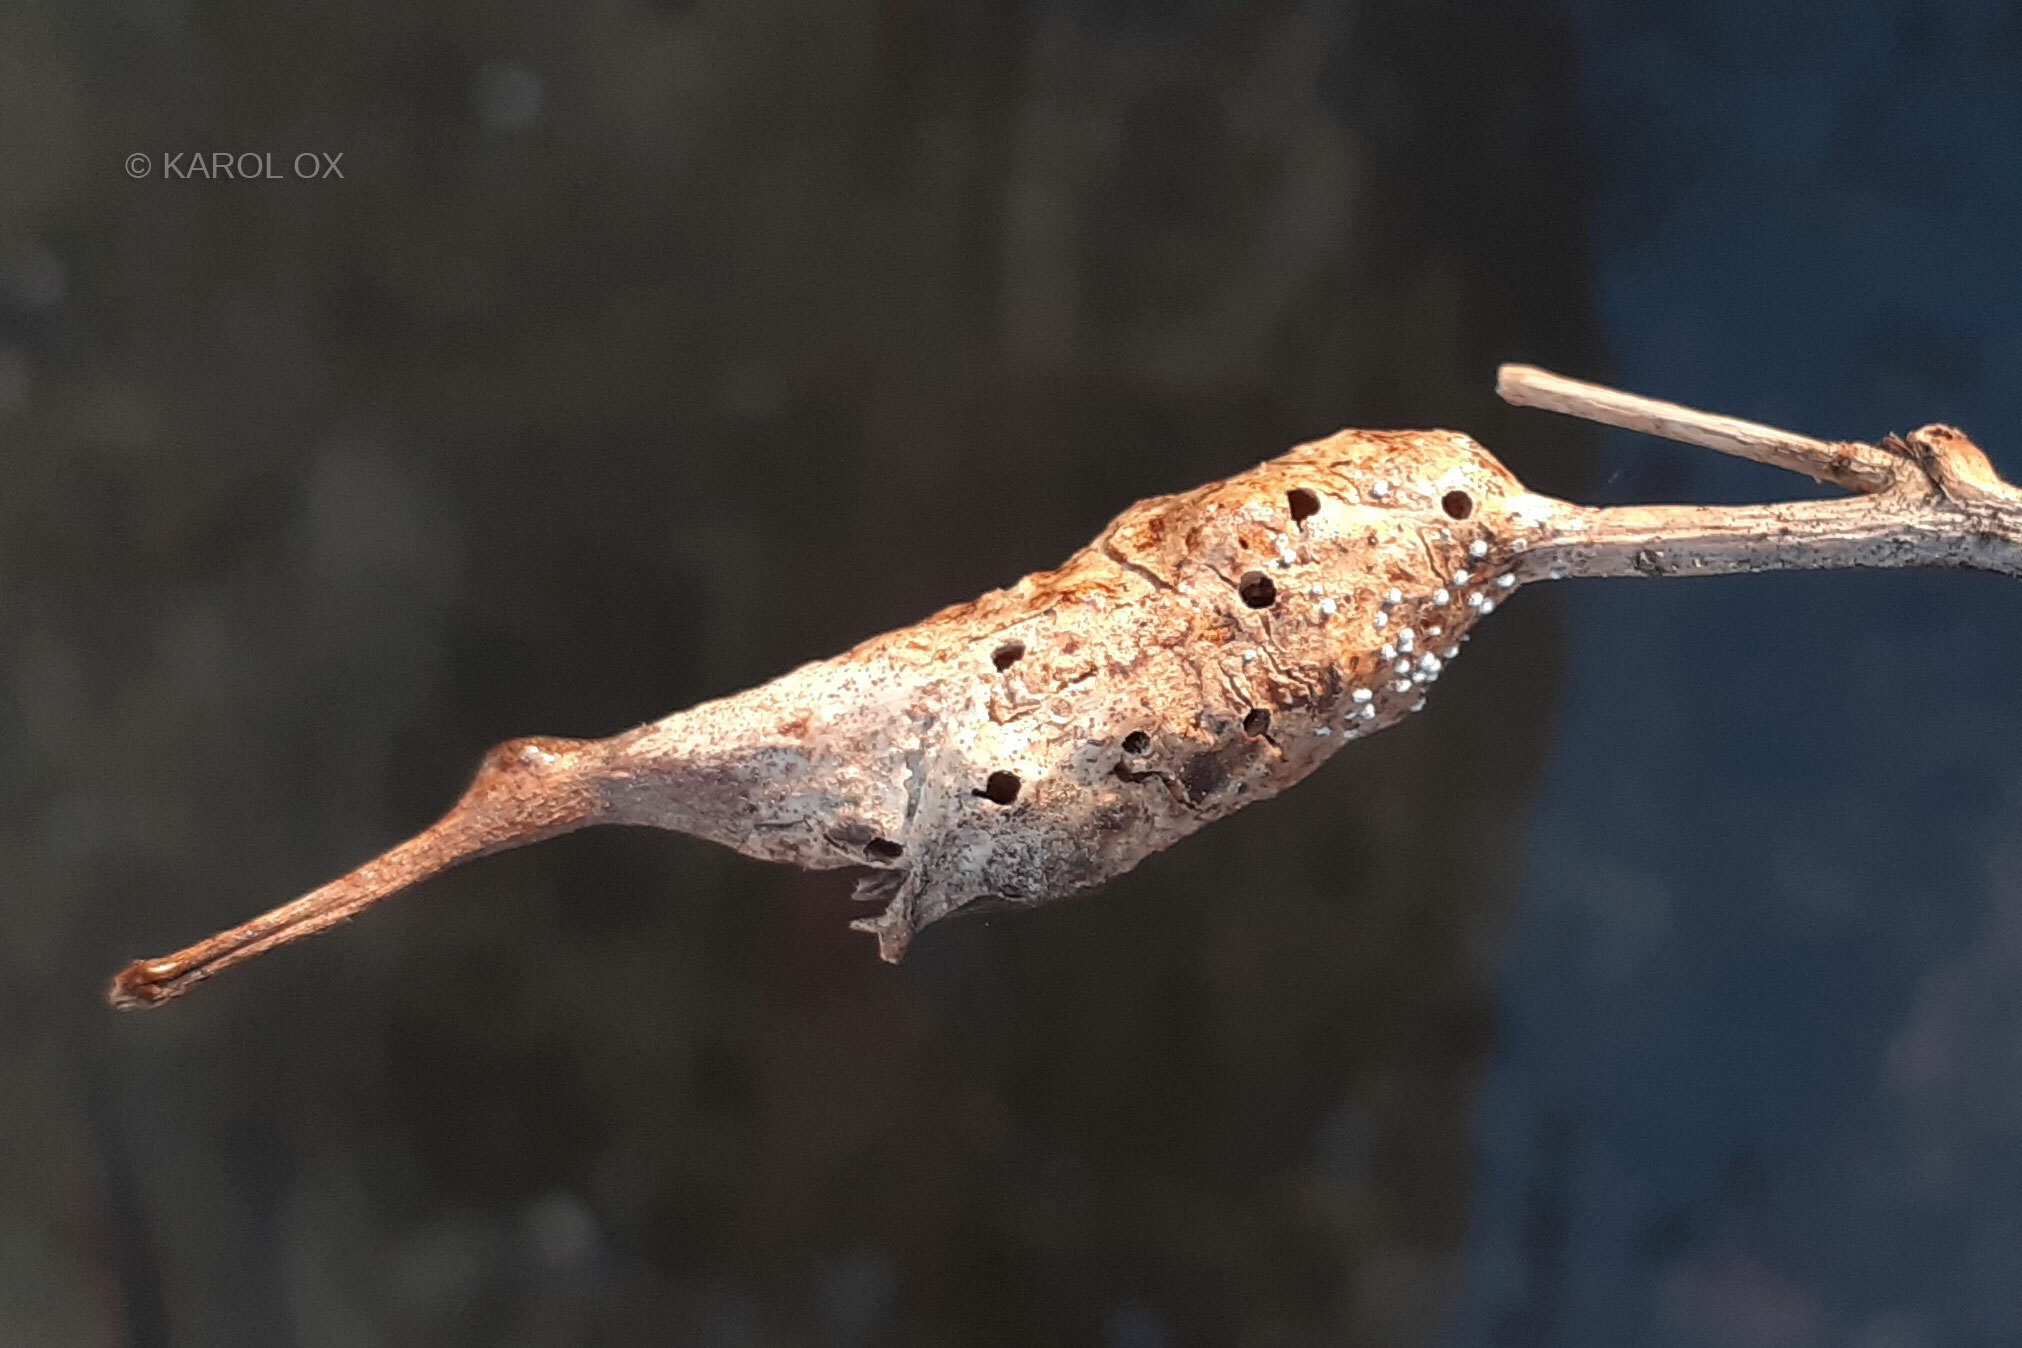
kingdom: Animalia
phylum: Arthropoda
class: Insecta
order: Hymenoptera
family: Cynipidae
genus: Diastrophus
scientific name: Diastrophus rubi
